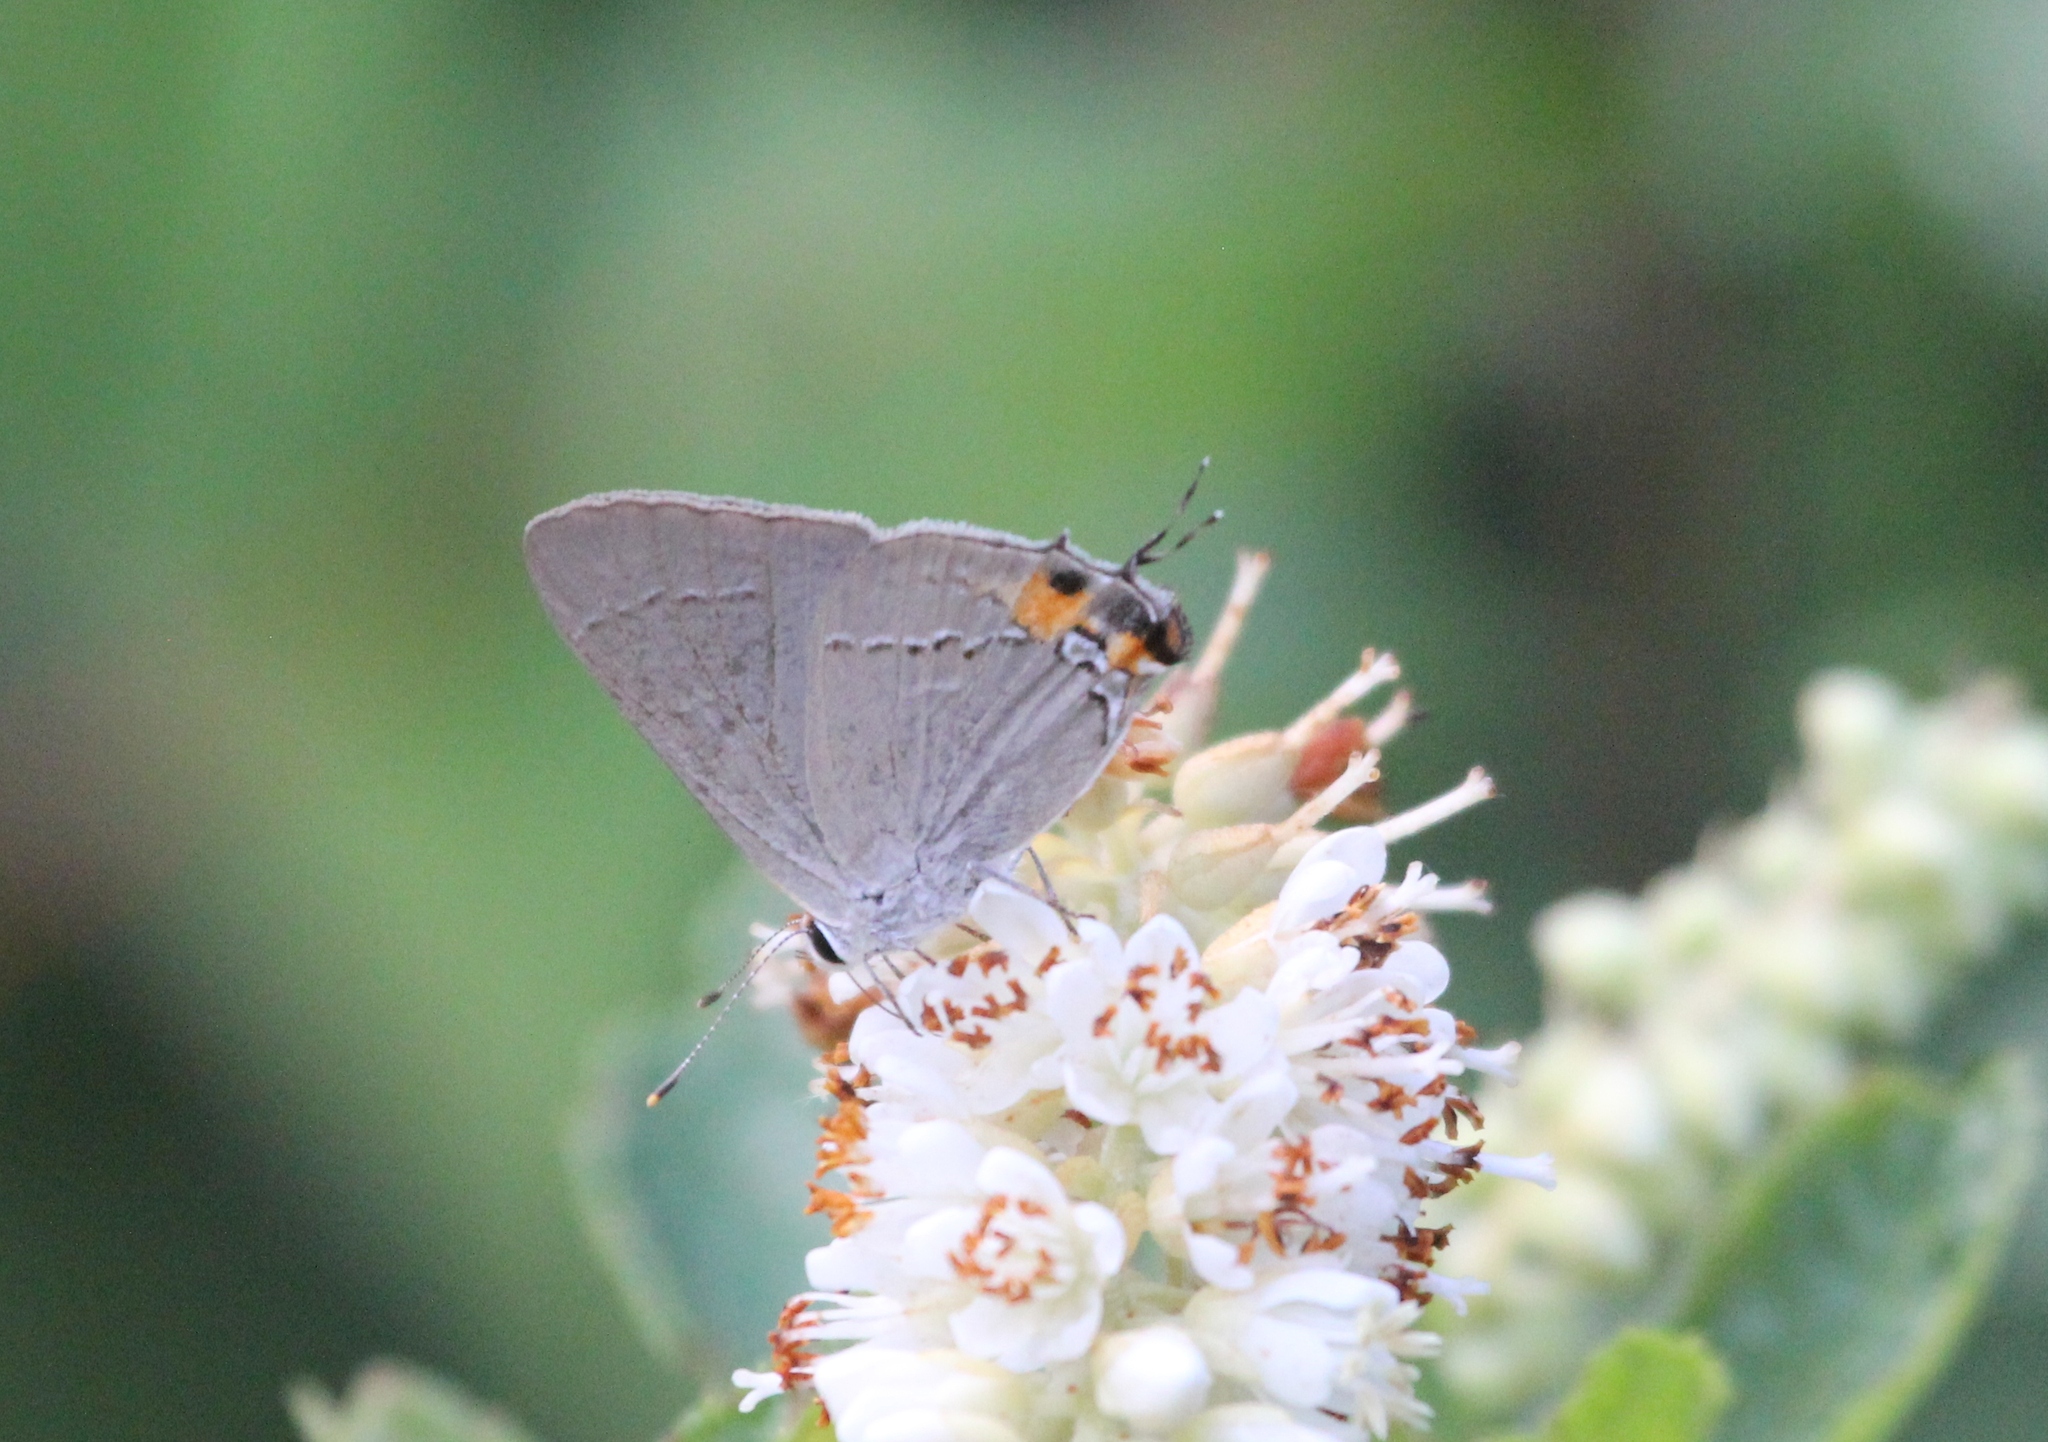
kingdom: Animalia
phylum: Arthropoda
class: Insecta
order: Lepidoptera
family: Lycaenidae
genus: Strymon
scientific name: Strymon melinus
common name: Gray hairstreak
